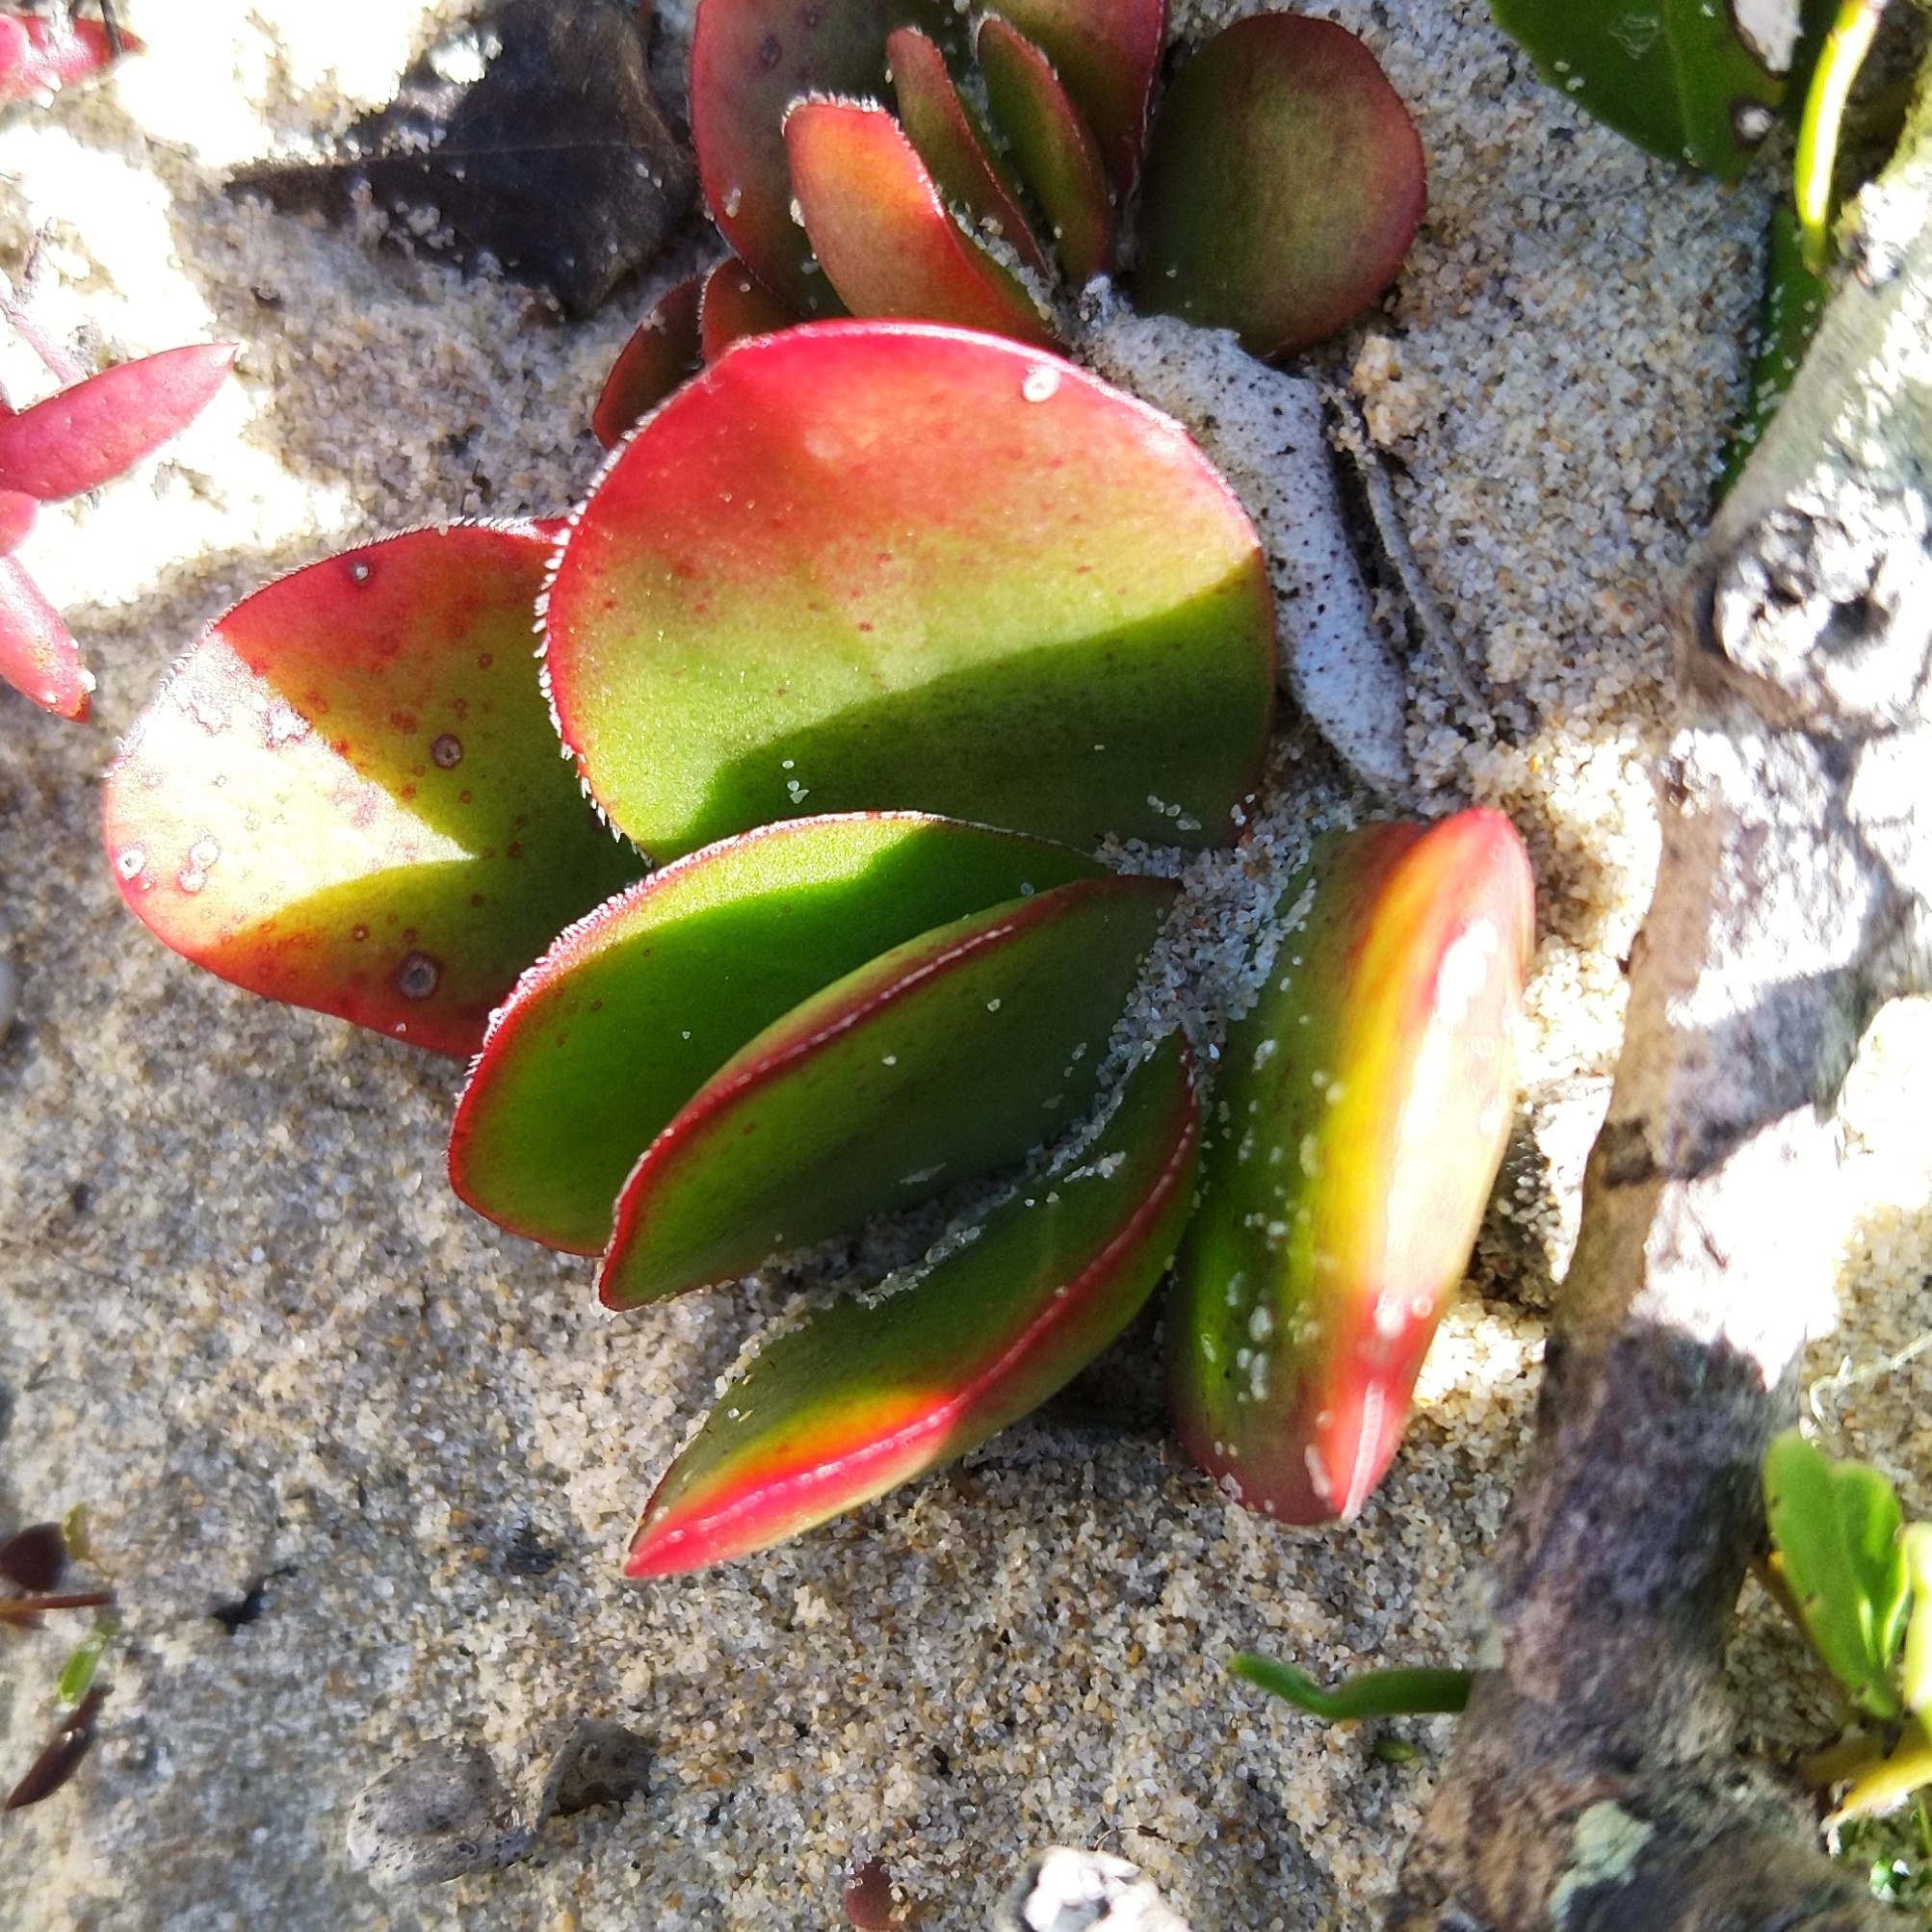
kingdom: Plantae
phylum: Tracheophyta
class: Magnoliopsida
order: Saxifragales
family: Crassulaceae
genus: Crassula
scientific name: Crassula atropurpurea
